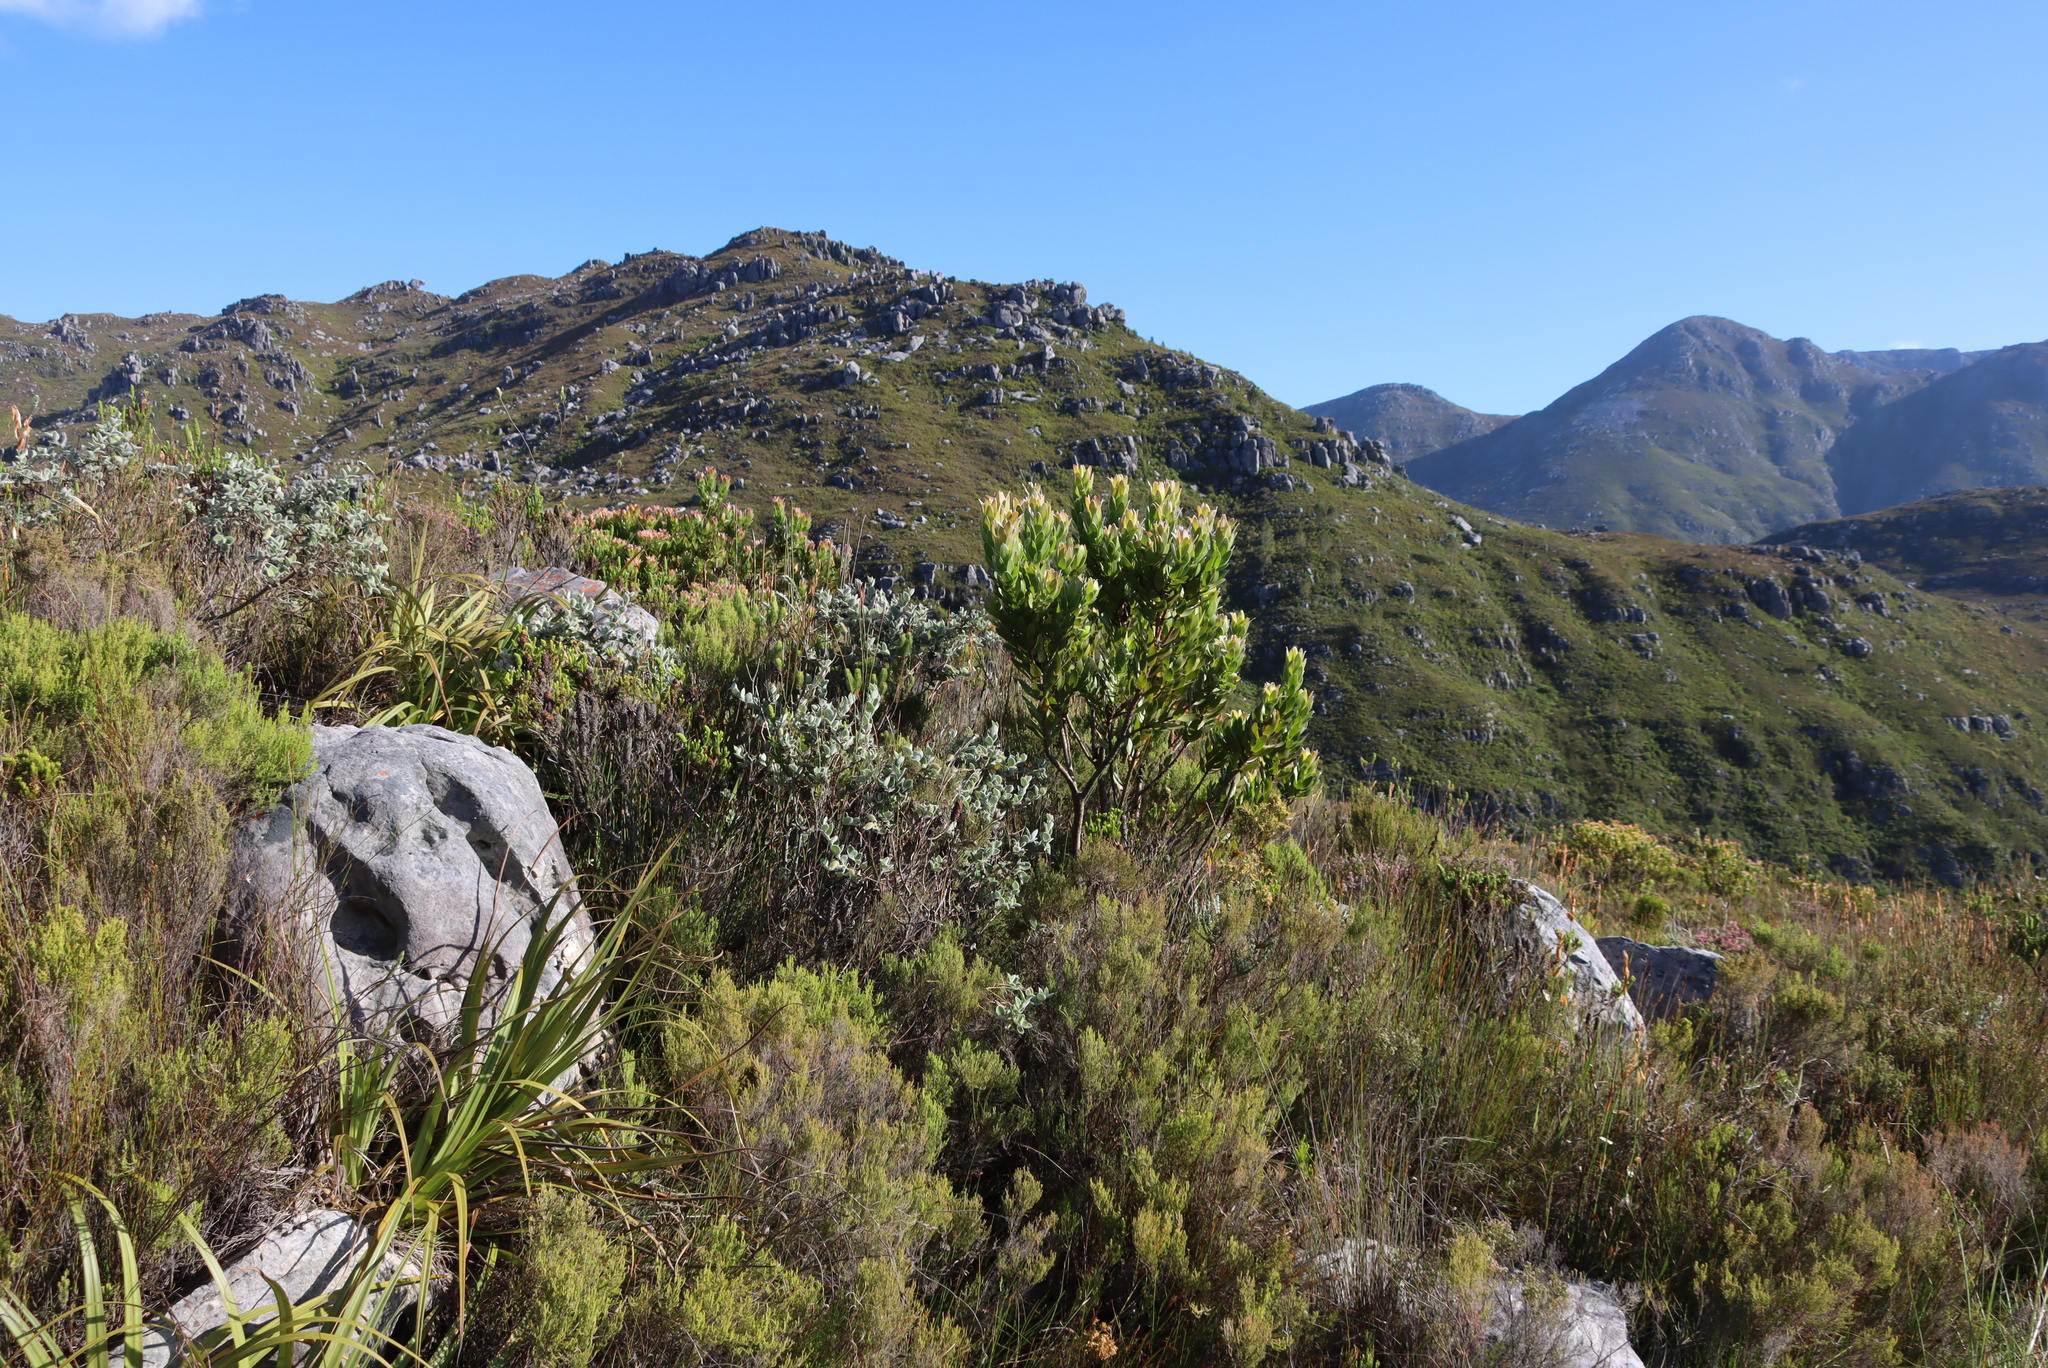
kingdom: Plantae
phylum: Tracheophyta
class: Magnoliopsida
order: Proteales
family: Proteaceae
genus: Leucadendron
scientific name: Leucadendron gandogeri
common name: Broad-leaf conebush
